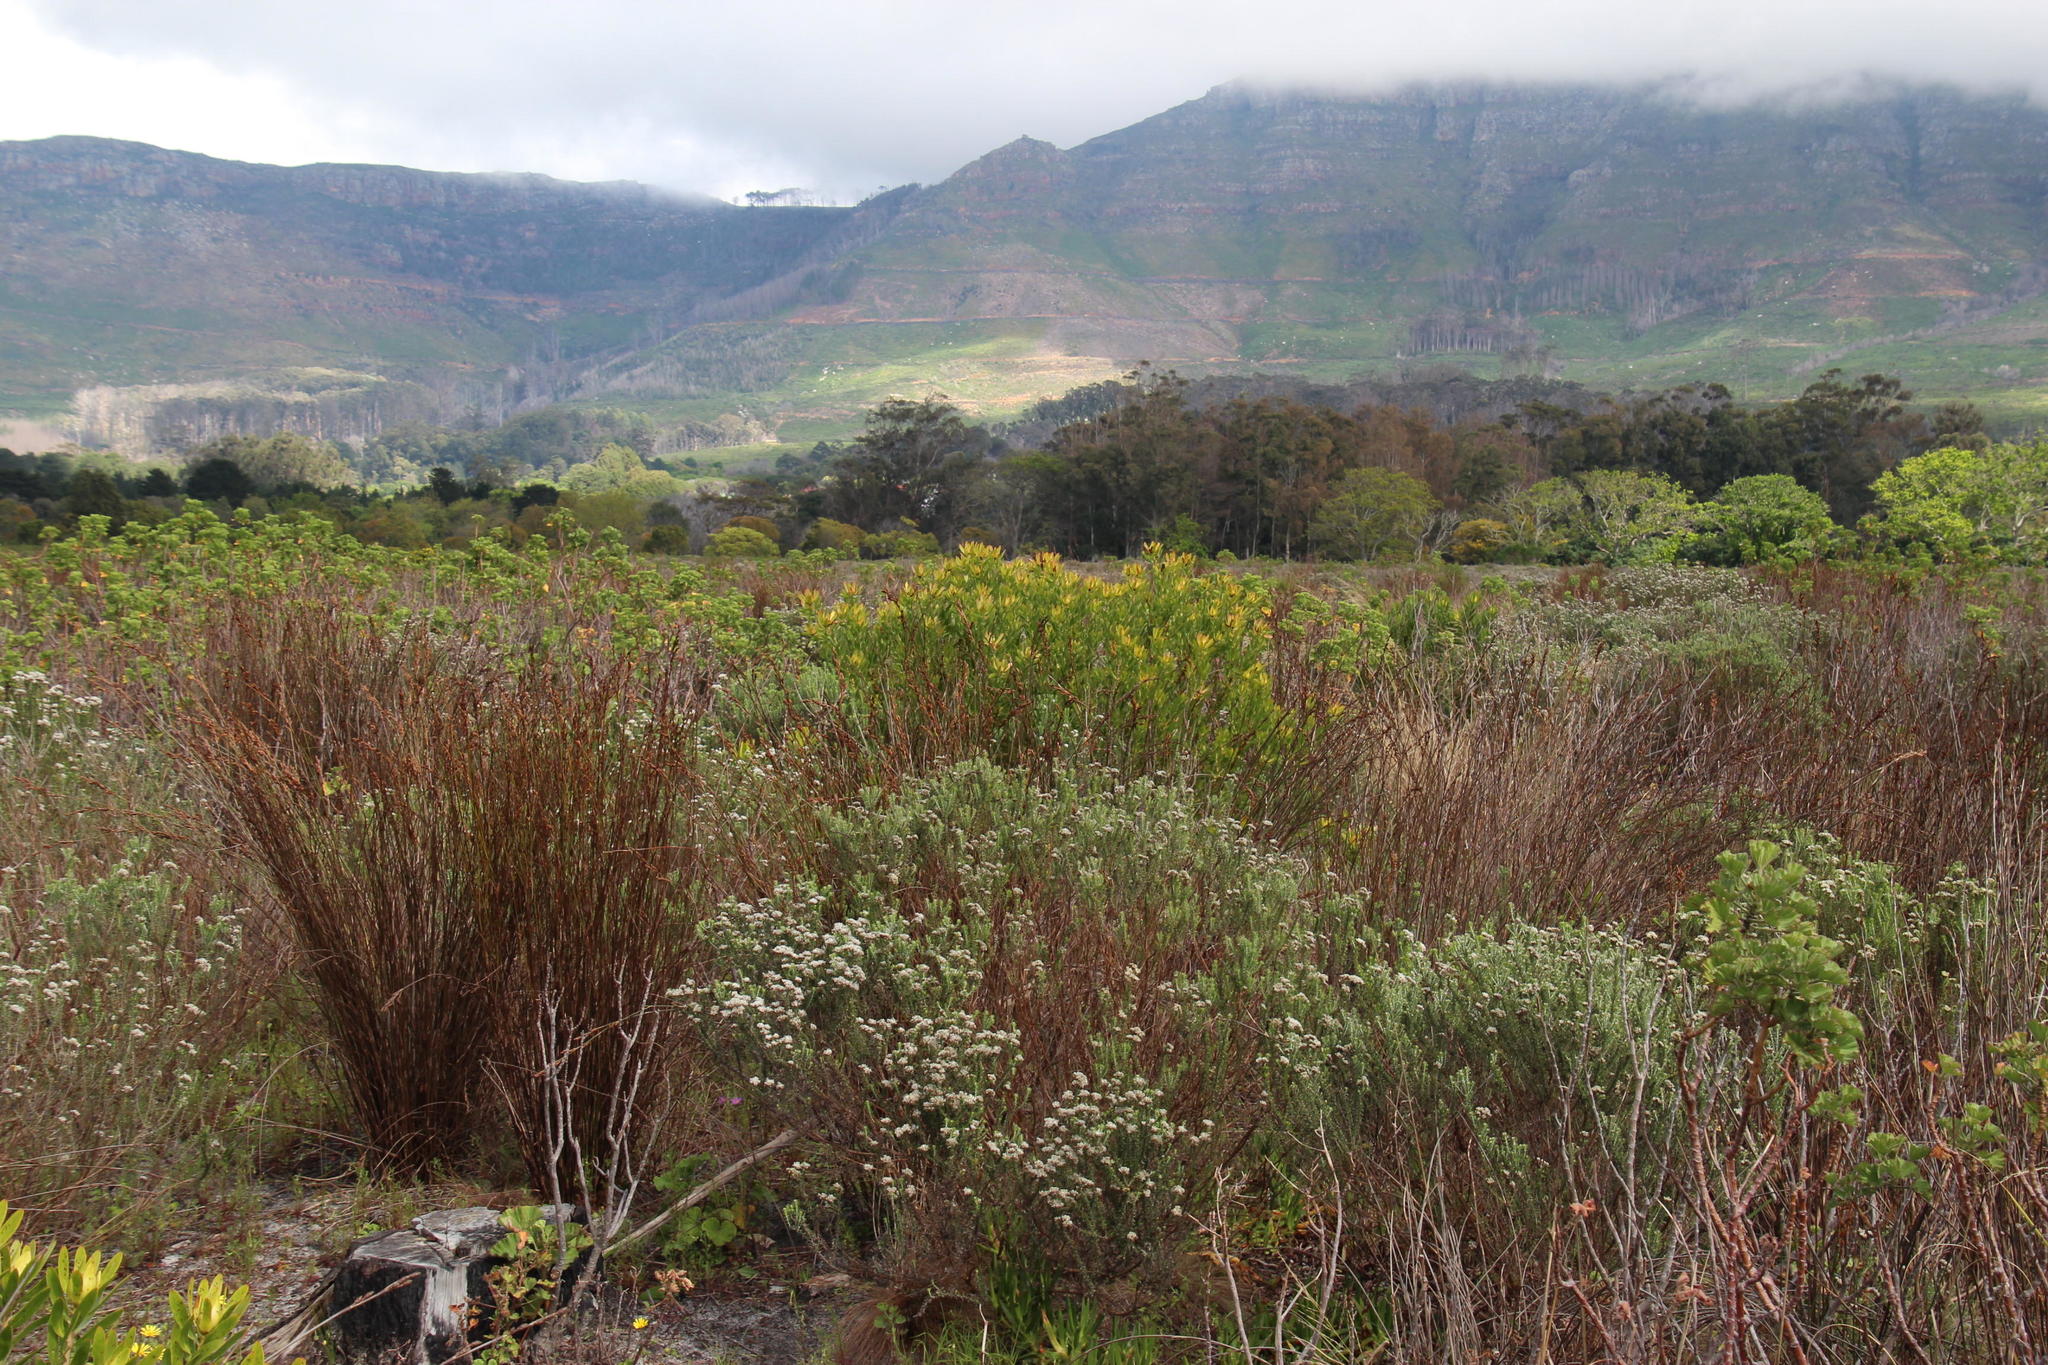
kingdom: Plantae
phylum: Tracheophyta
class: Liliopsida
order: Poales
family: Restionaceae
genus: Restio
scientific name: Restio bifurcus
